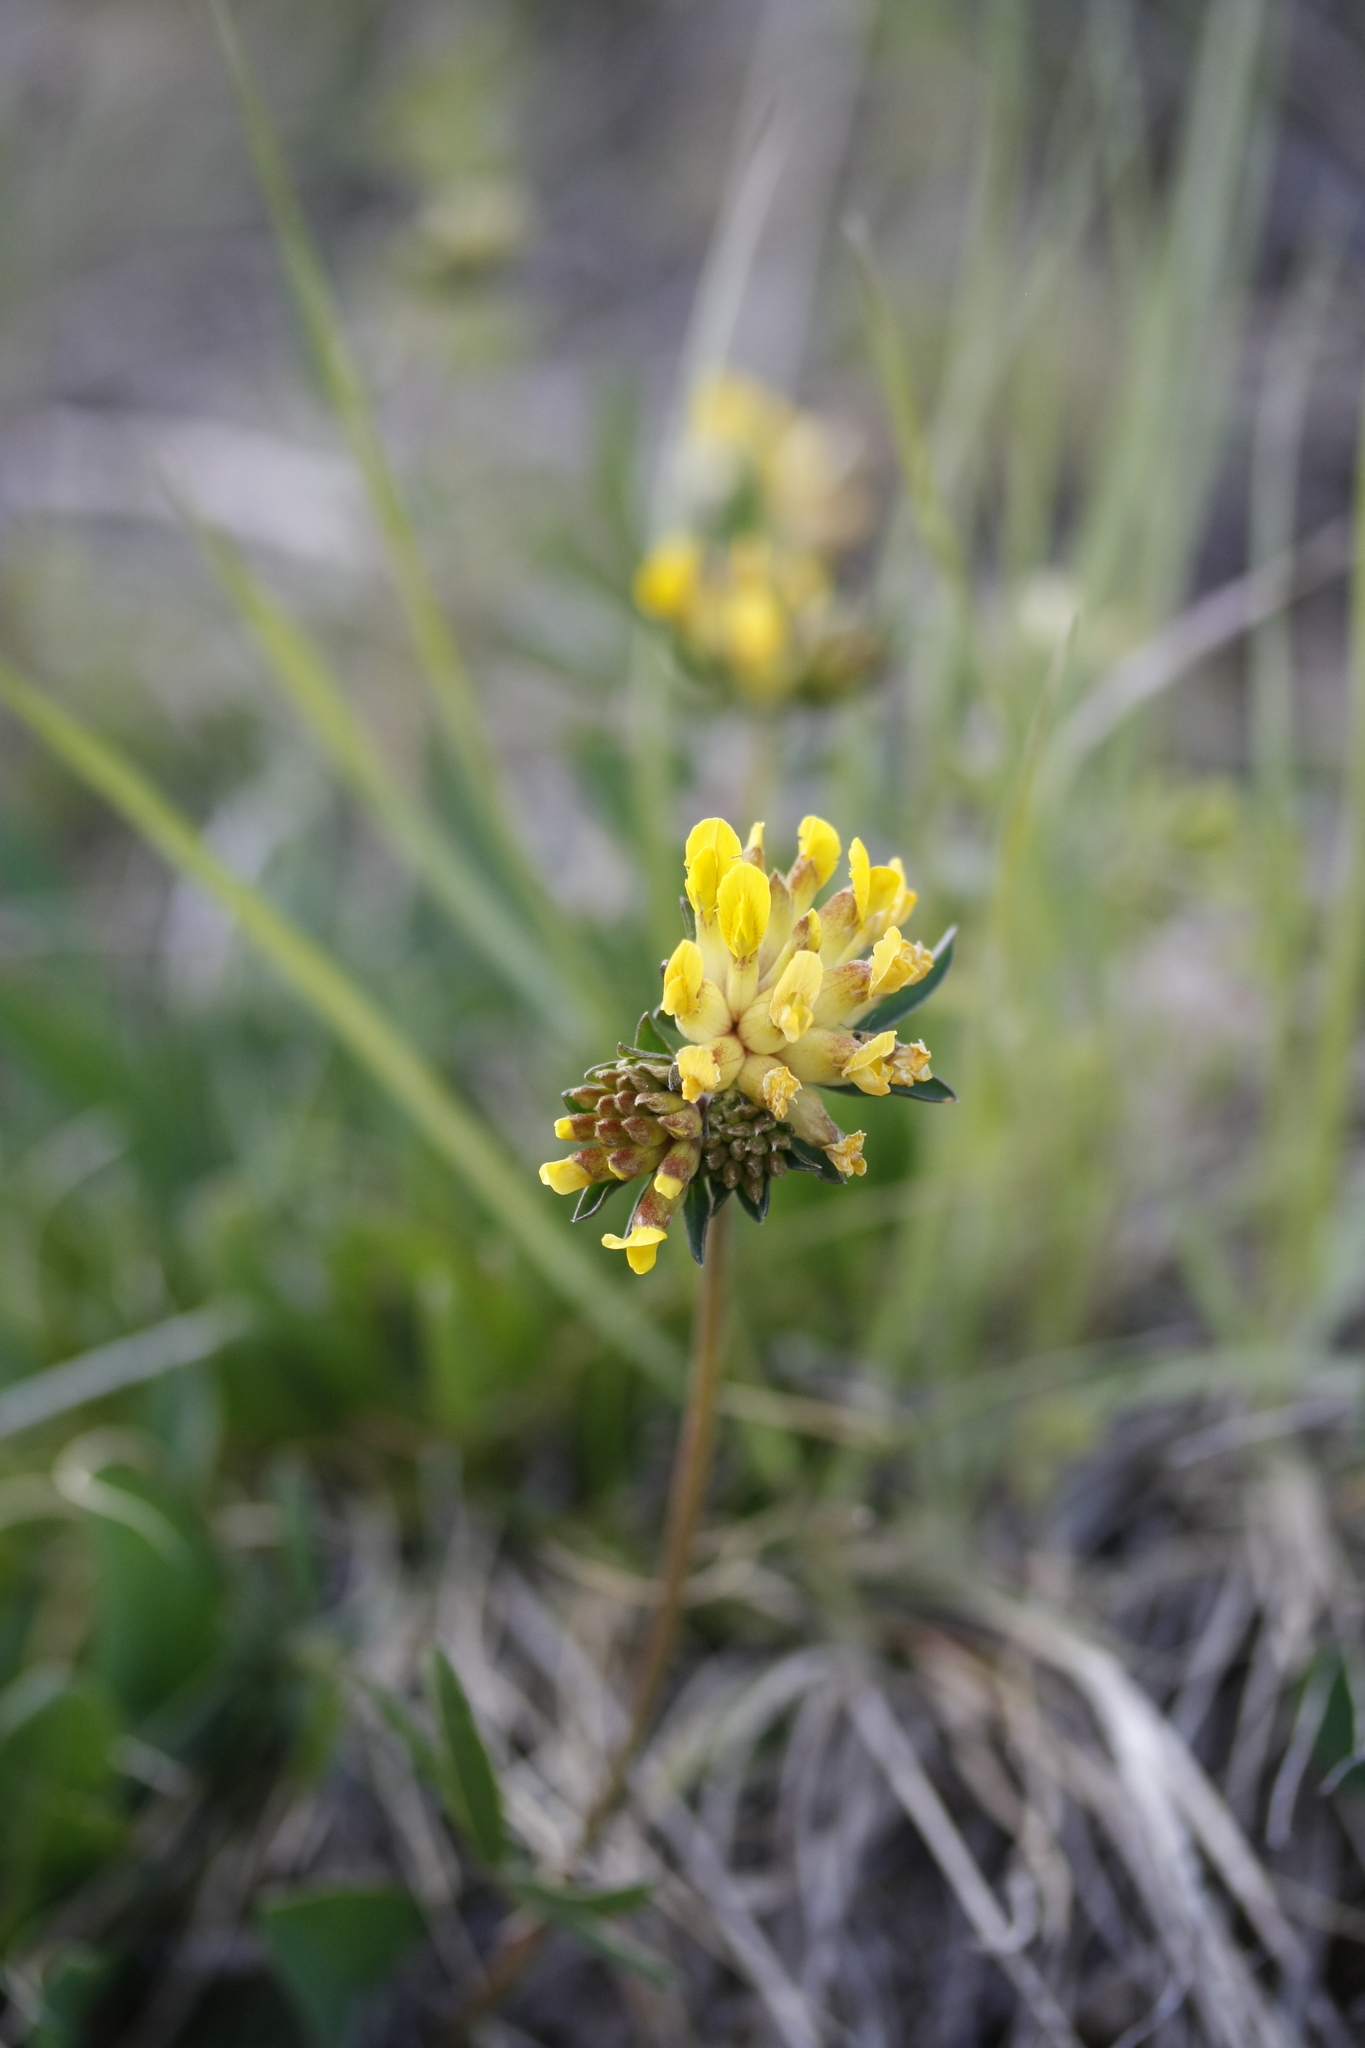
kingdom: Plantae
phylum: Tracheophyta
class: Magnoliopsida
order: Fabales
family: Fabaceae
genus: Anthyllis
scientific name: Anthyllis vulneraria
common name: Kidney vetch
